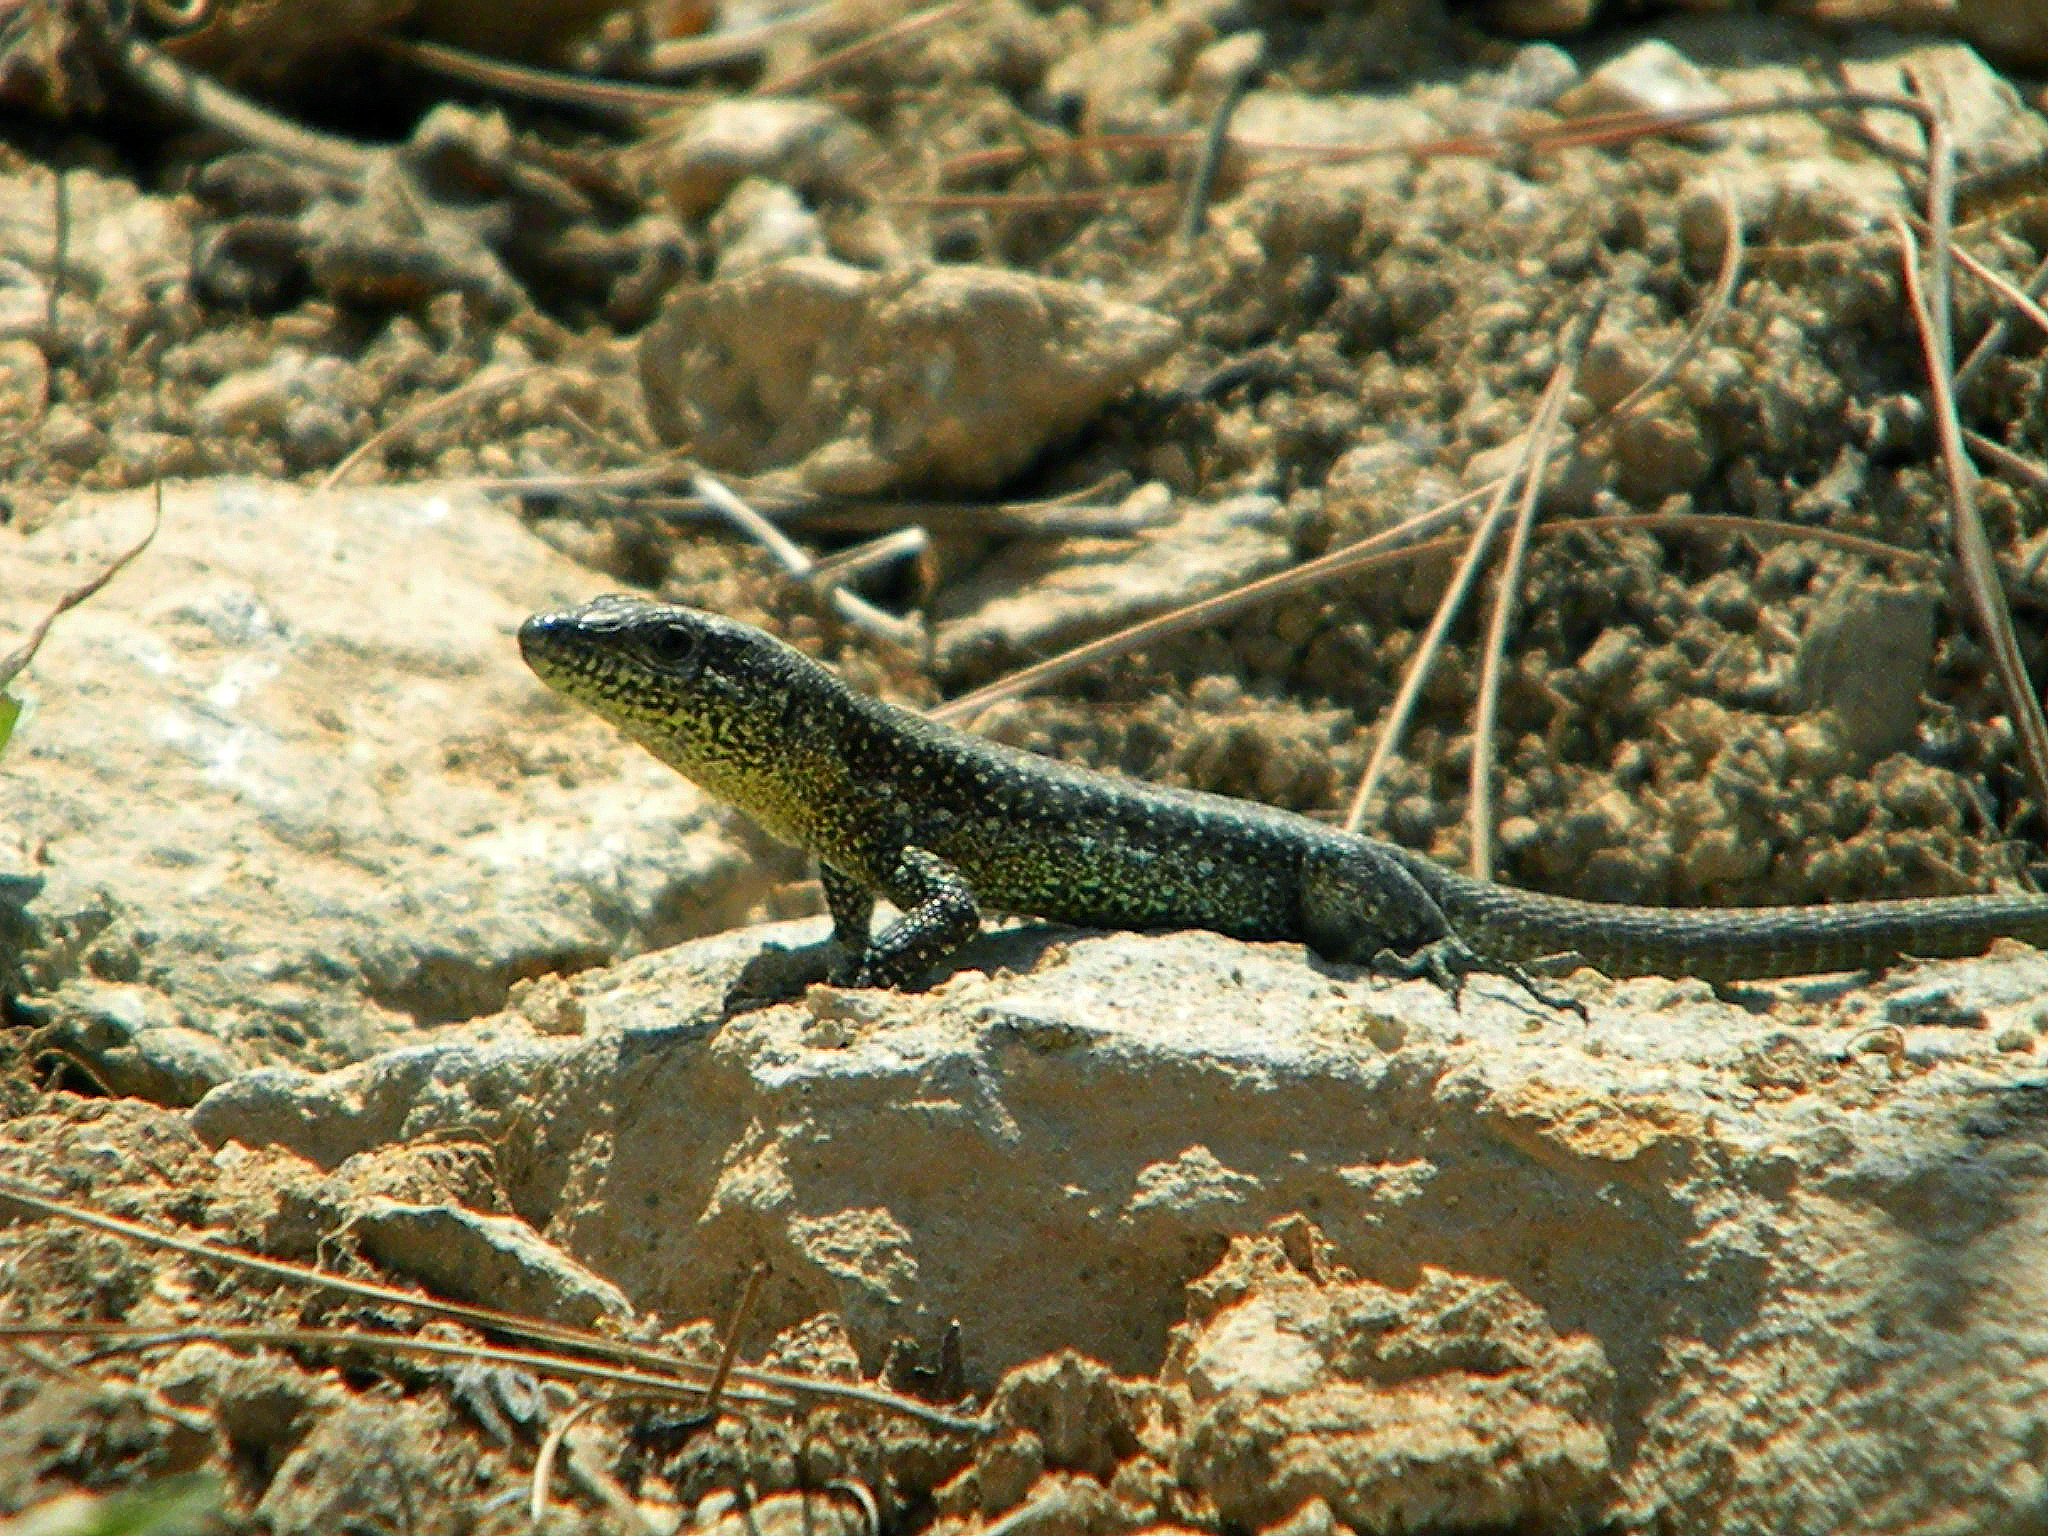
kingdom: Animalia
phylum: Chordata
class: Squamata
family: Lacertidae
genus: Anatololacerta
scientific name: Anatololacerta anatolica
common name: Anatolian rock lizard
